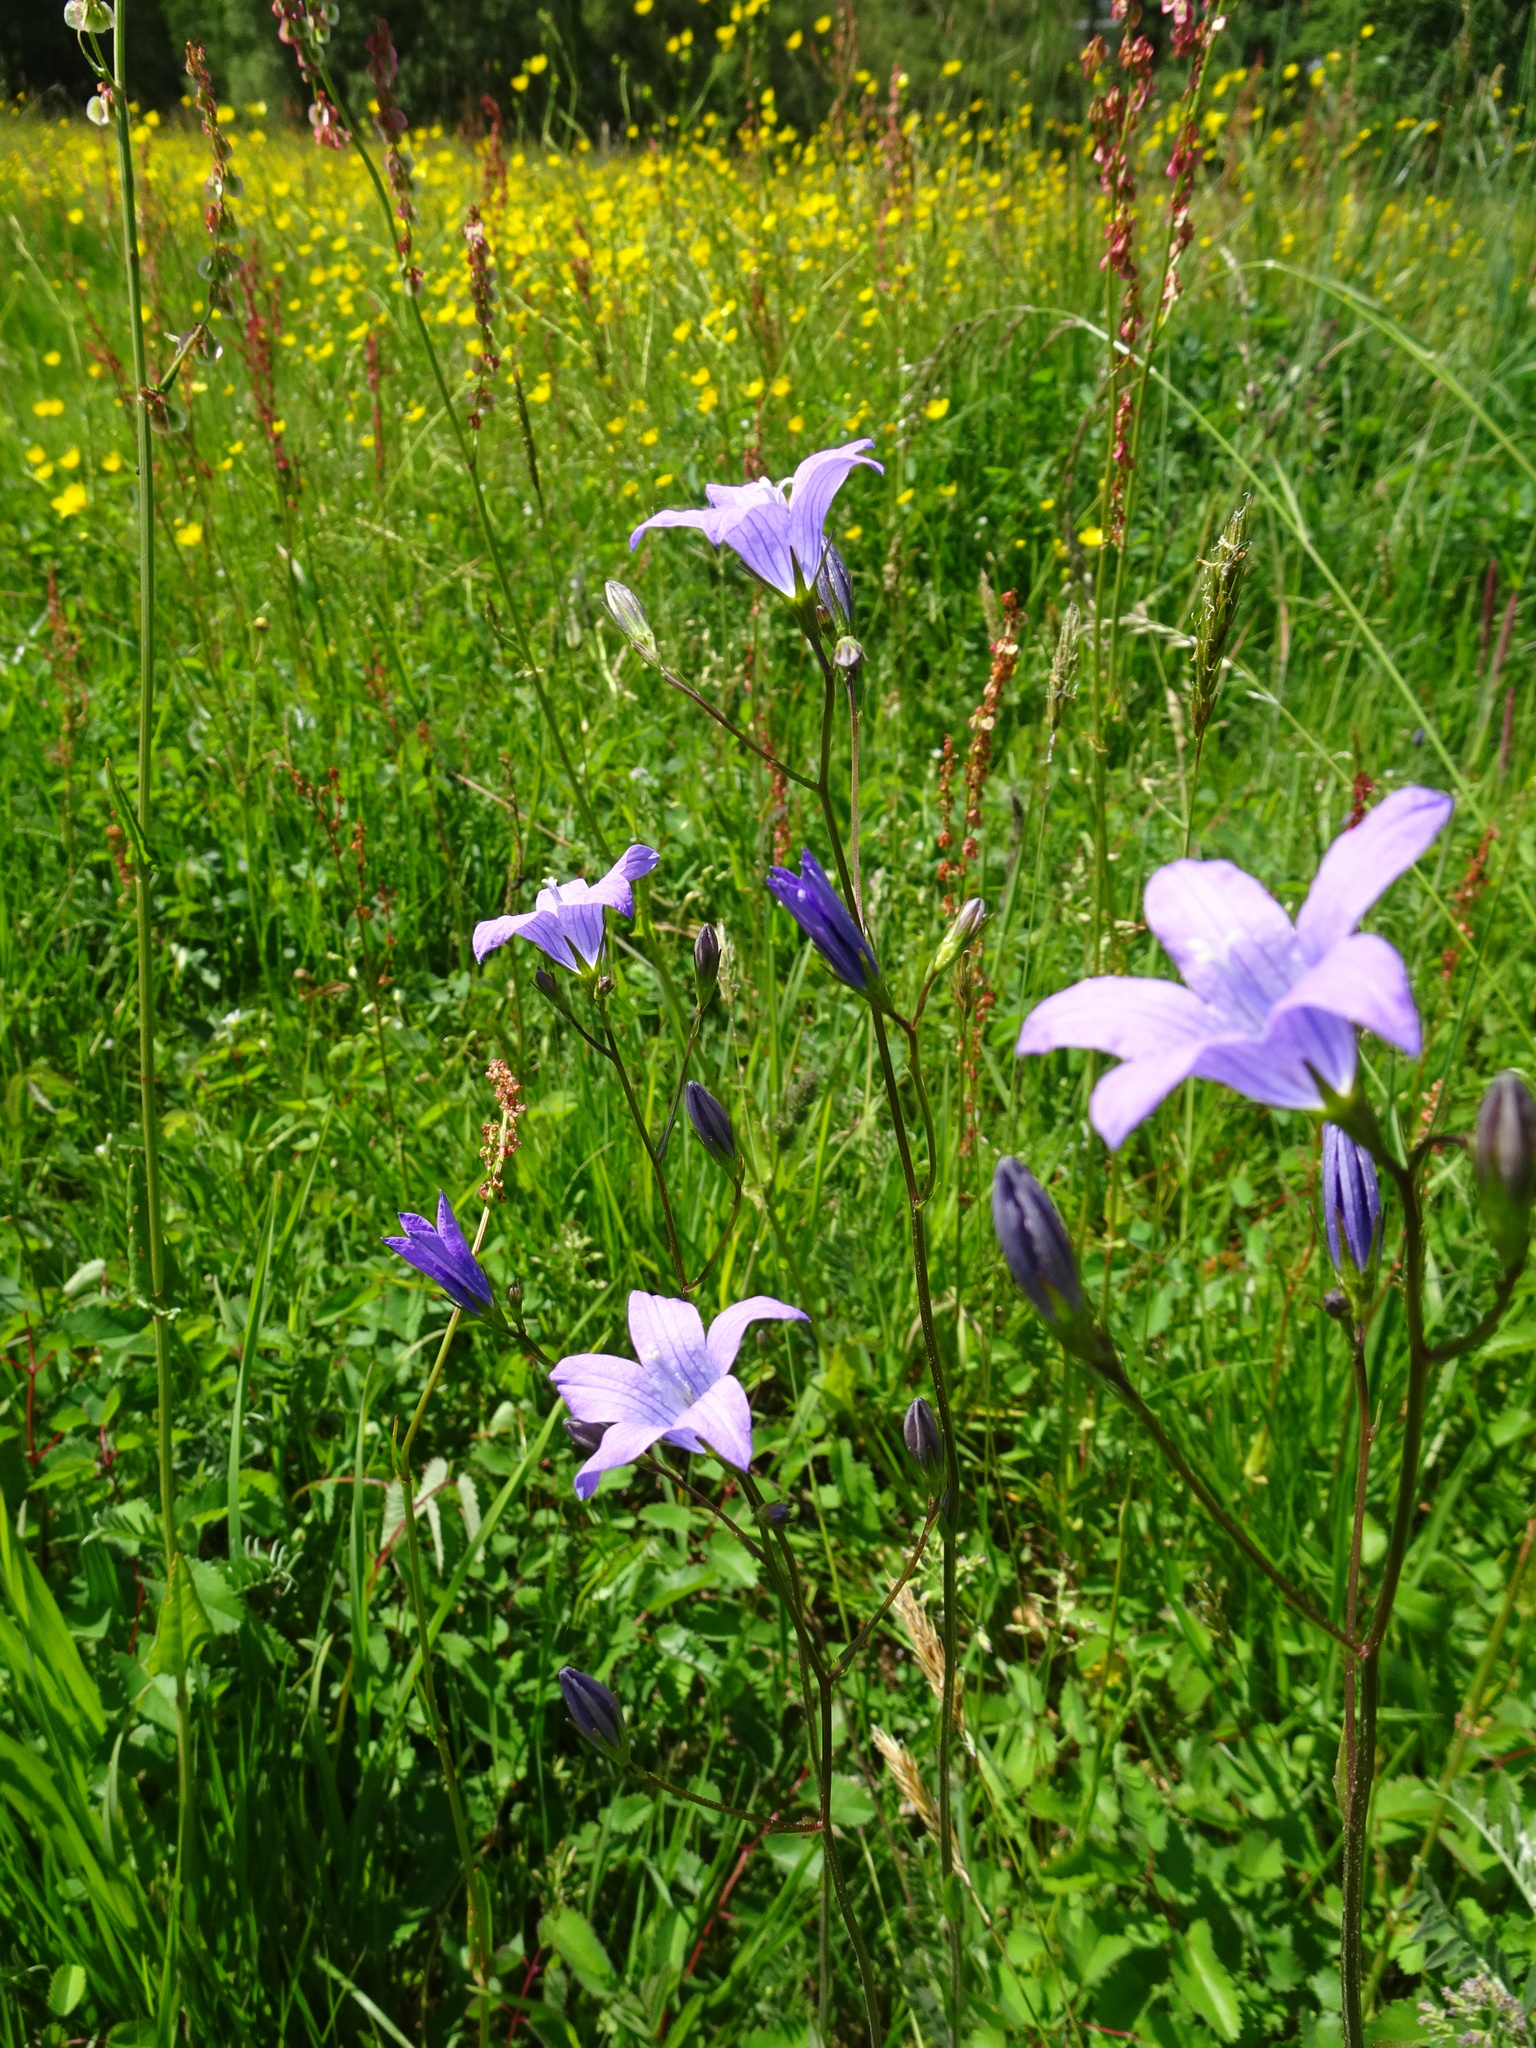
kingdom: Plantae
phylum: Tracheophyta
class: Magnoliopsida
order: Asterales
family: Campanulaceae
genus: Campanula
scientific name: Campanula patula
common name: Spreading bellflower
